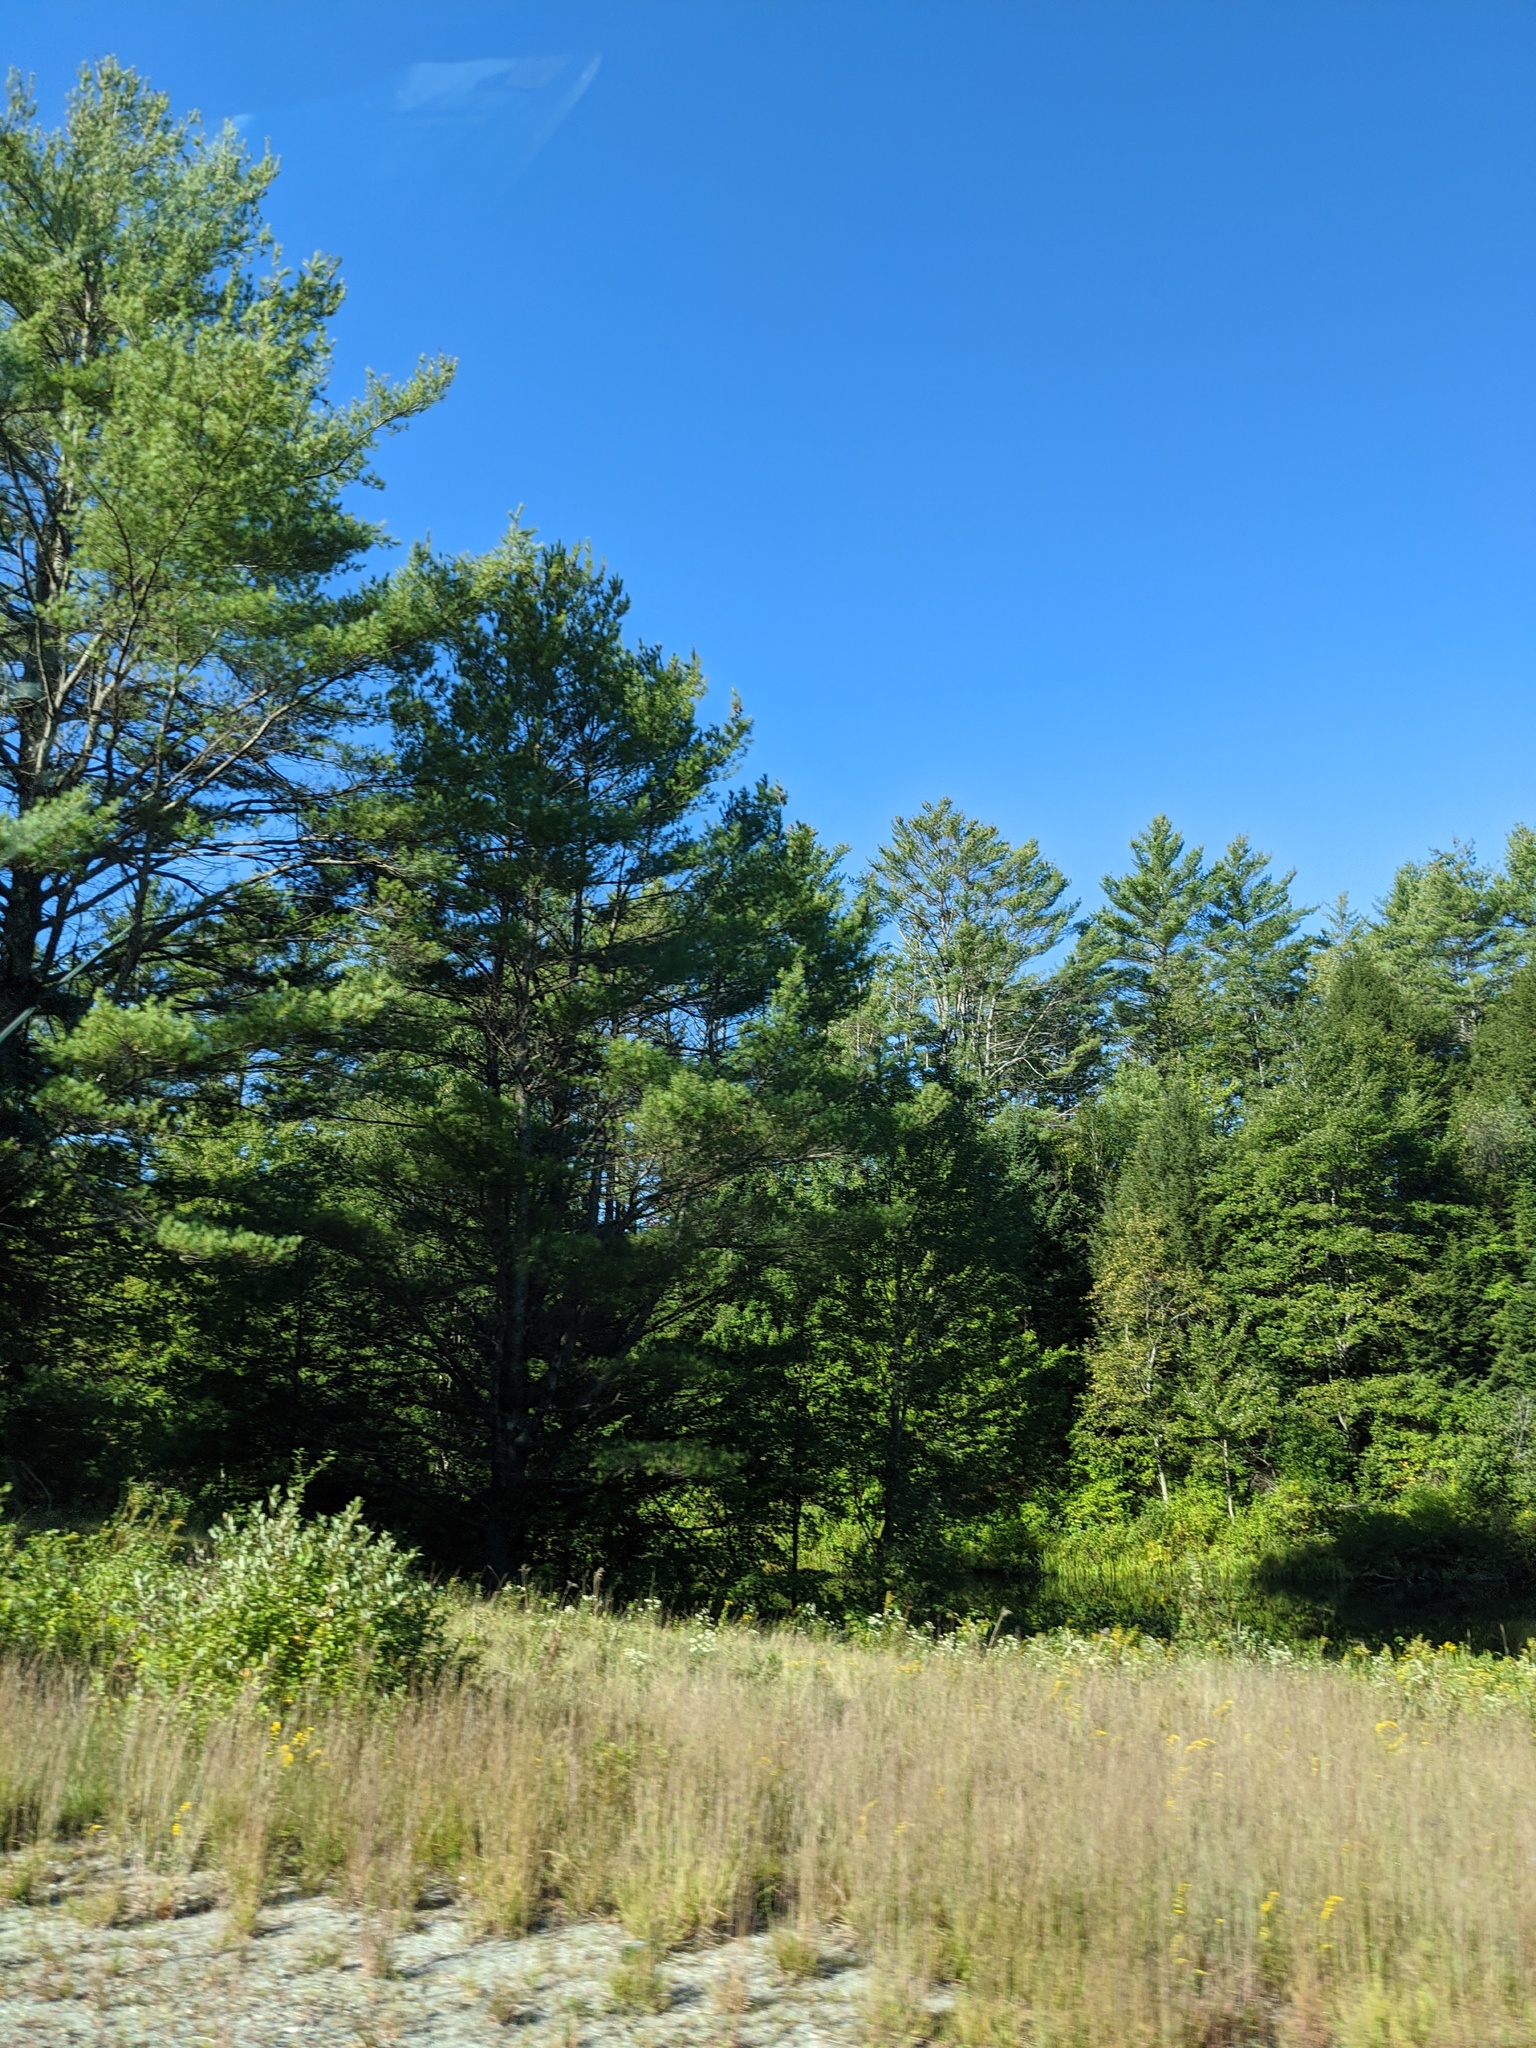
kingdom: Plantae
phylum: Tracheophyta
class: Pinopsida
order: Pinales
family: Pinaceae
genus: Pinus
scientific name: Pinus strobus
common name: Weymouth pine
